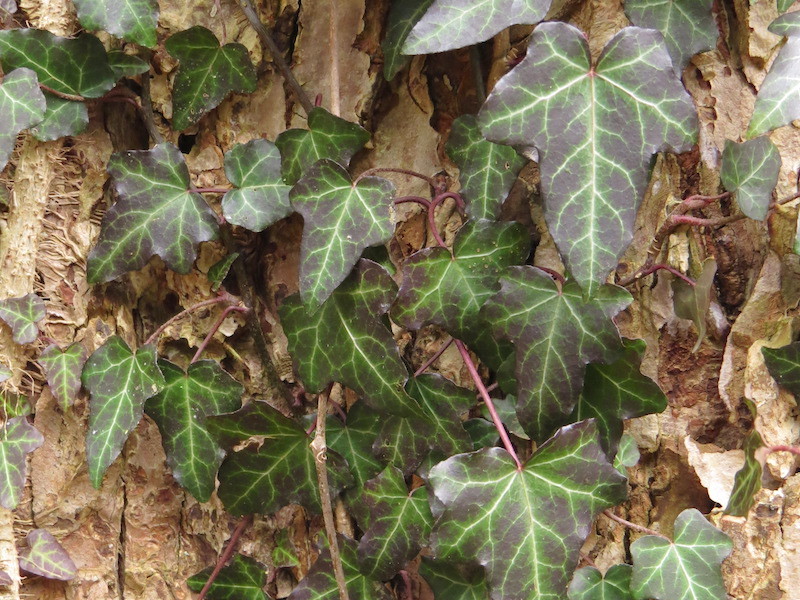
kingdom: Plantae
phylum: Tracheophyta
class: Magnoliopsida
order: Apiales
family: Araliaceae
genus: Hedera
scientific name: Hedera helix
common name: Ivy
